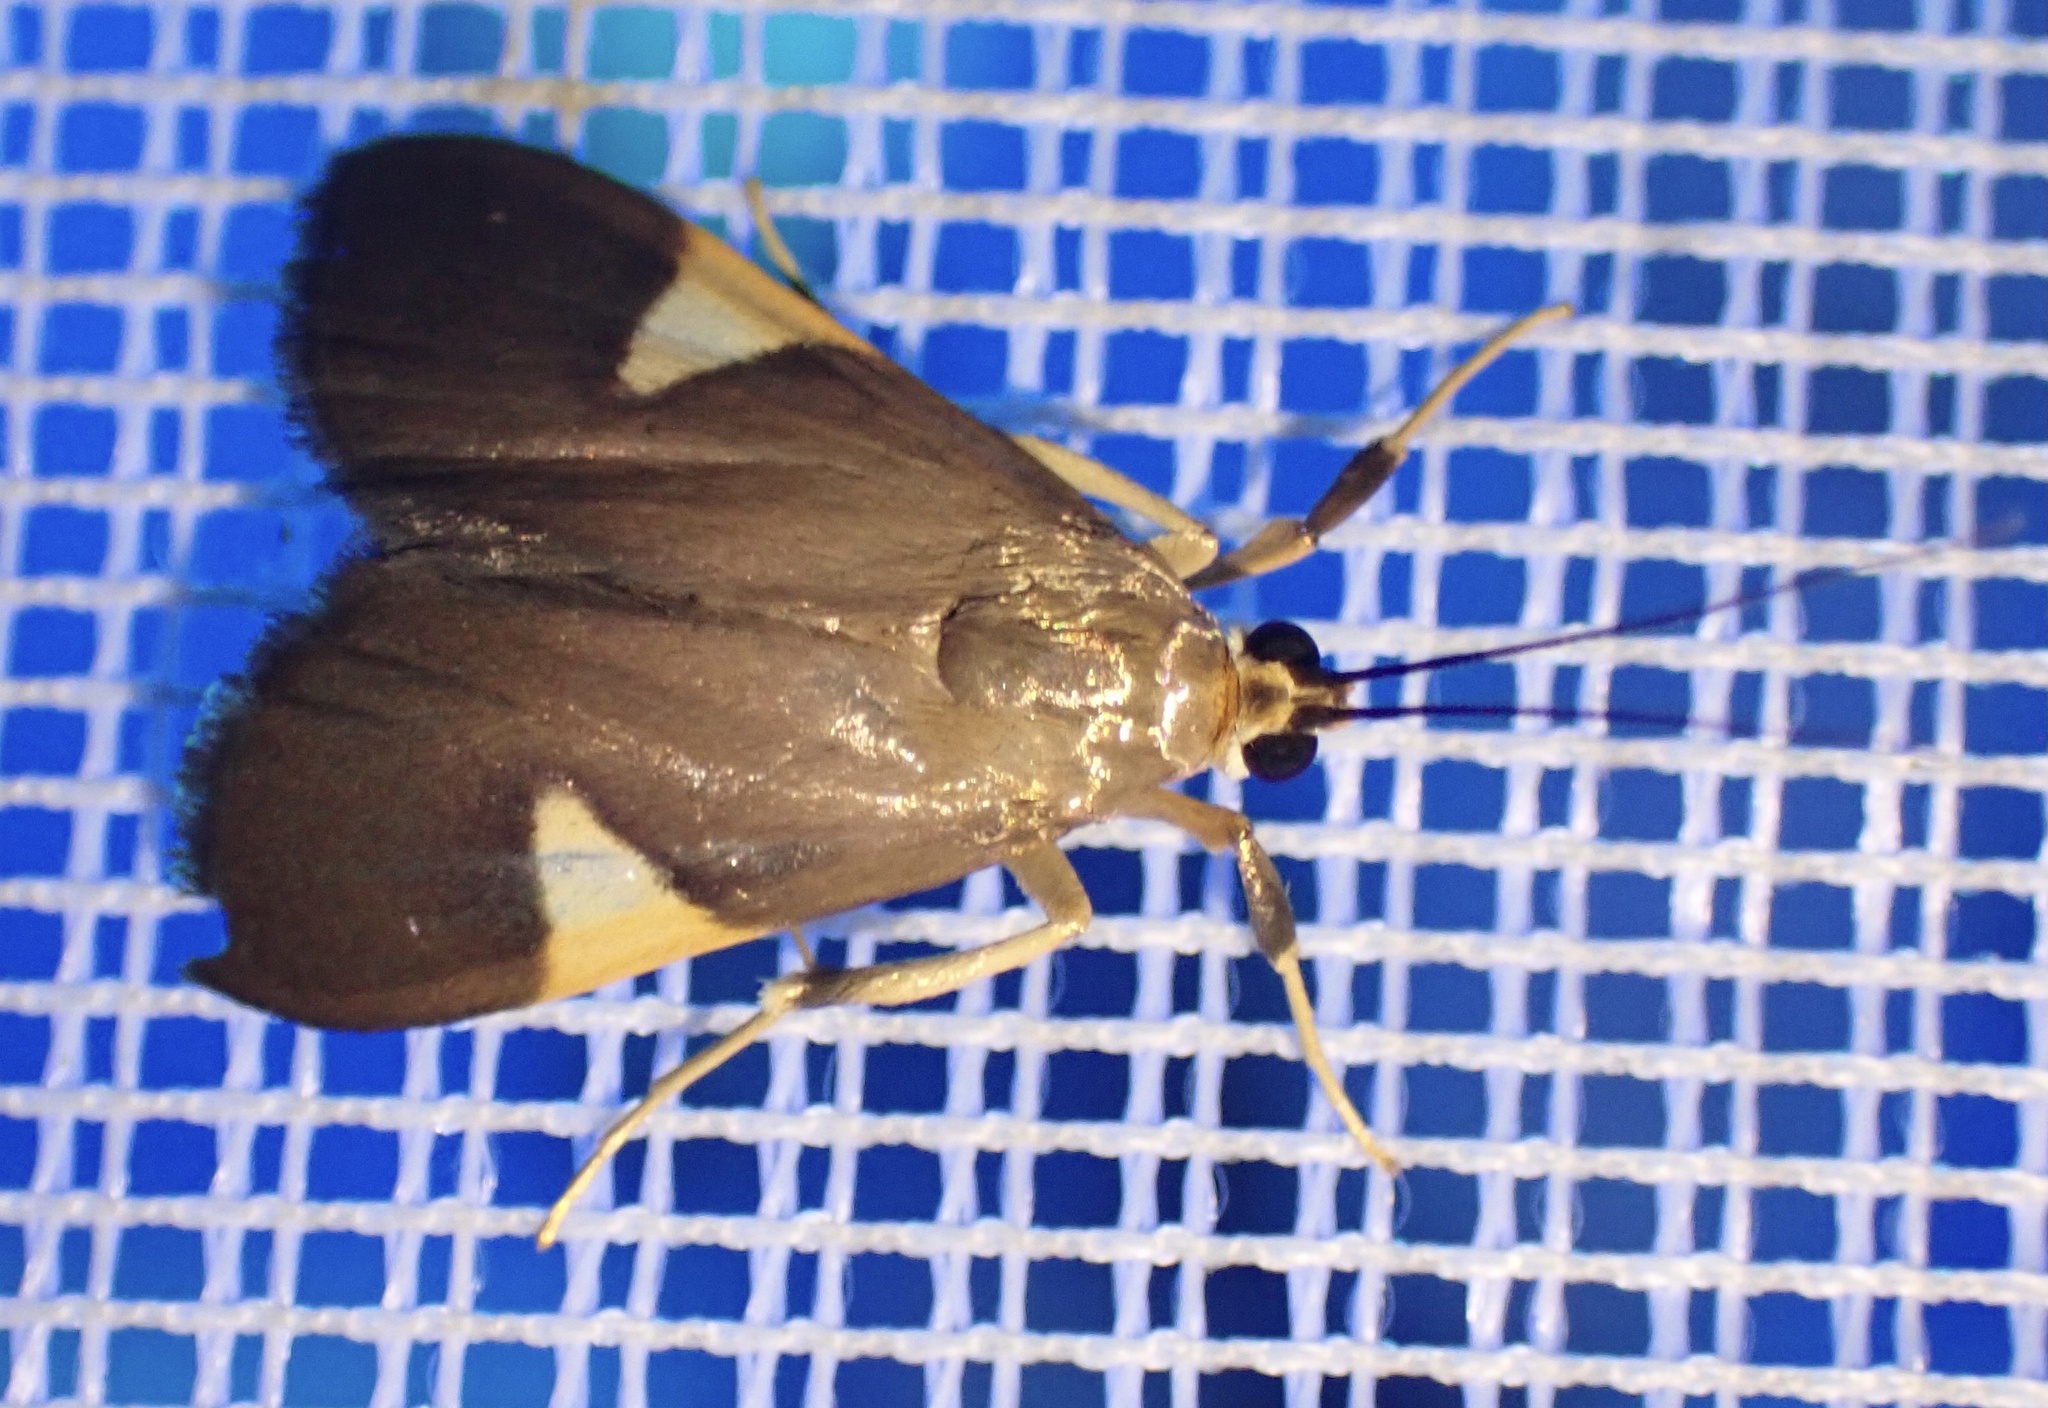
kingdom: Animalia
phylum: Arthropoda
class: Insecta
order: Lepidoptera
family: Crambidae
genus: Ulopeza
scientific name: Ulopeza conigeralis
